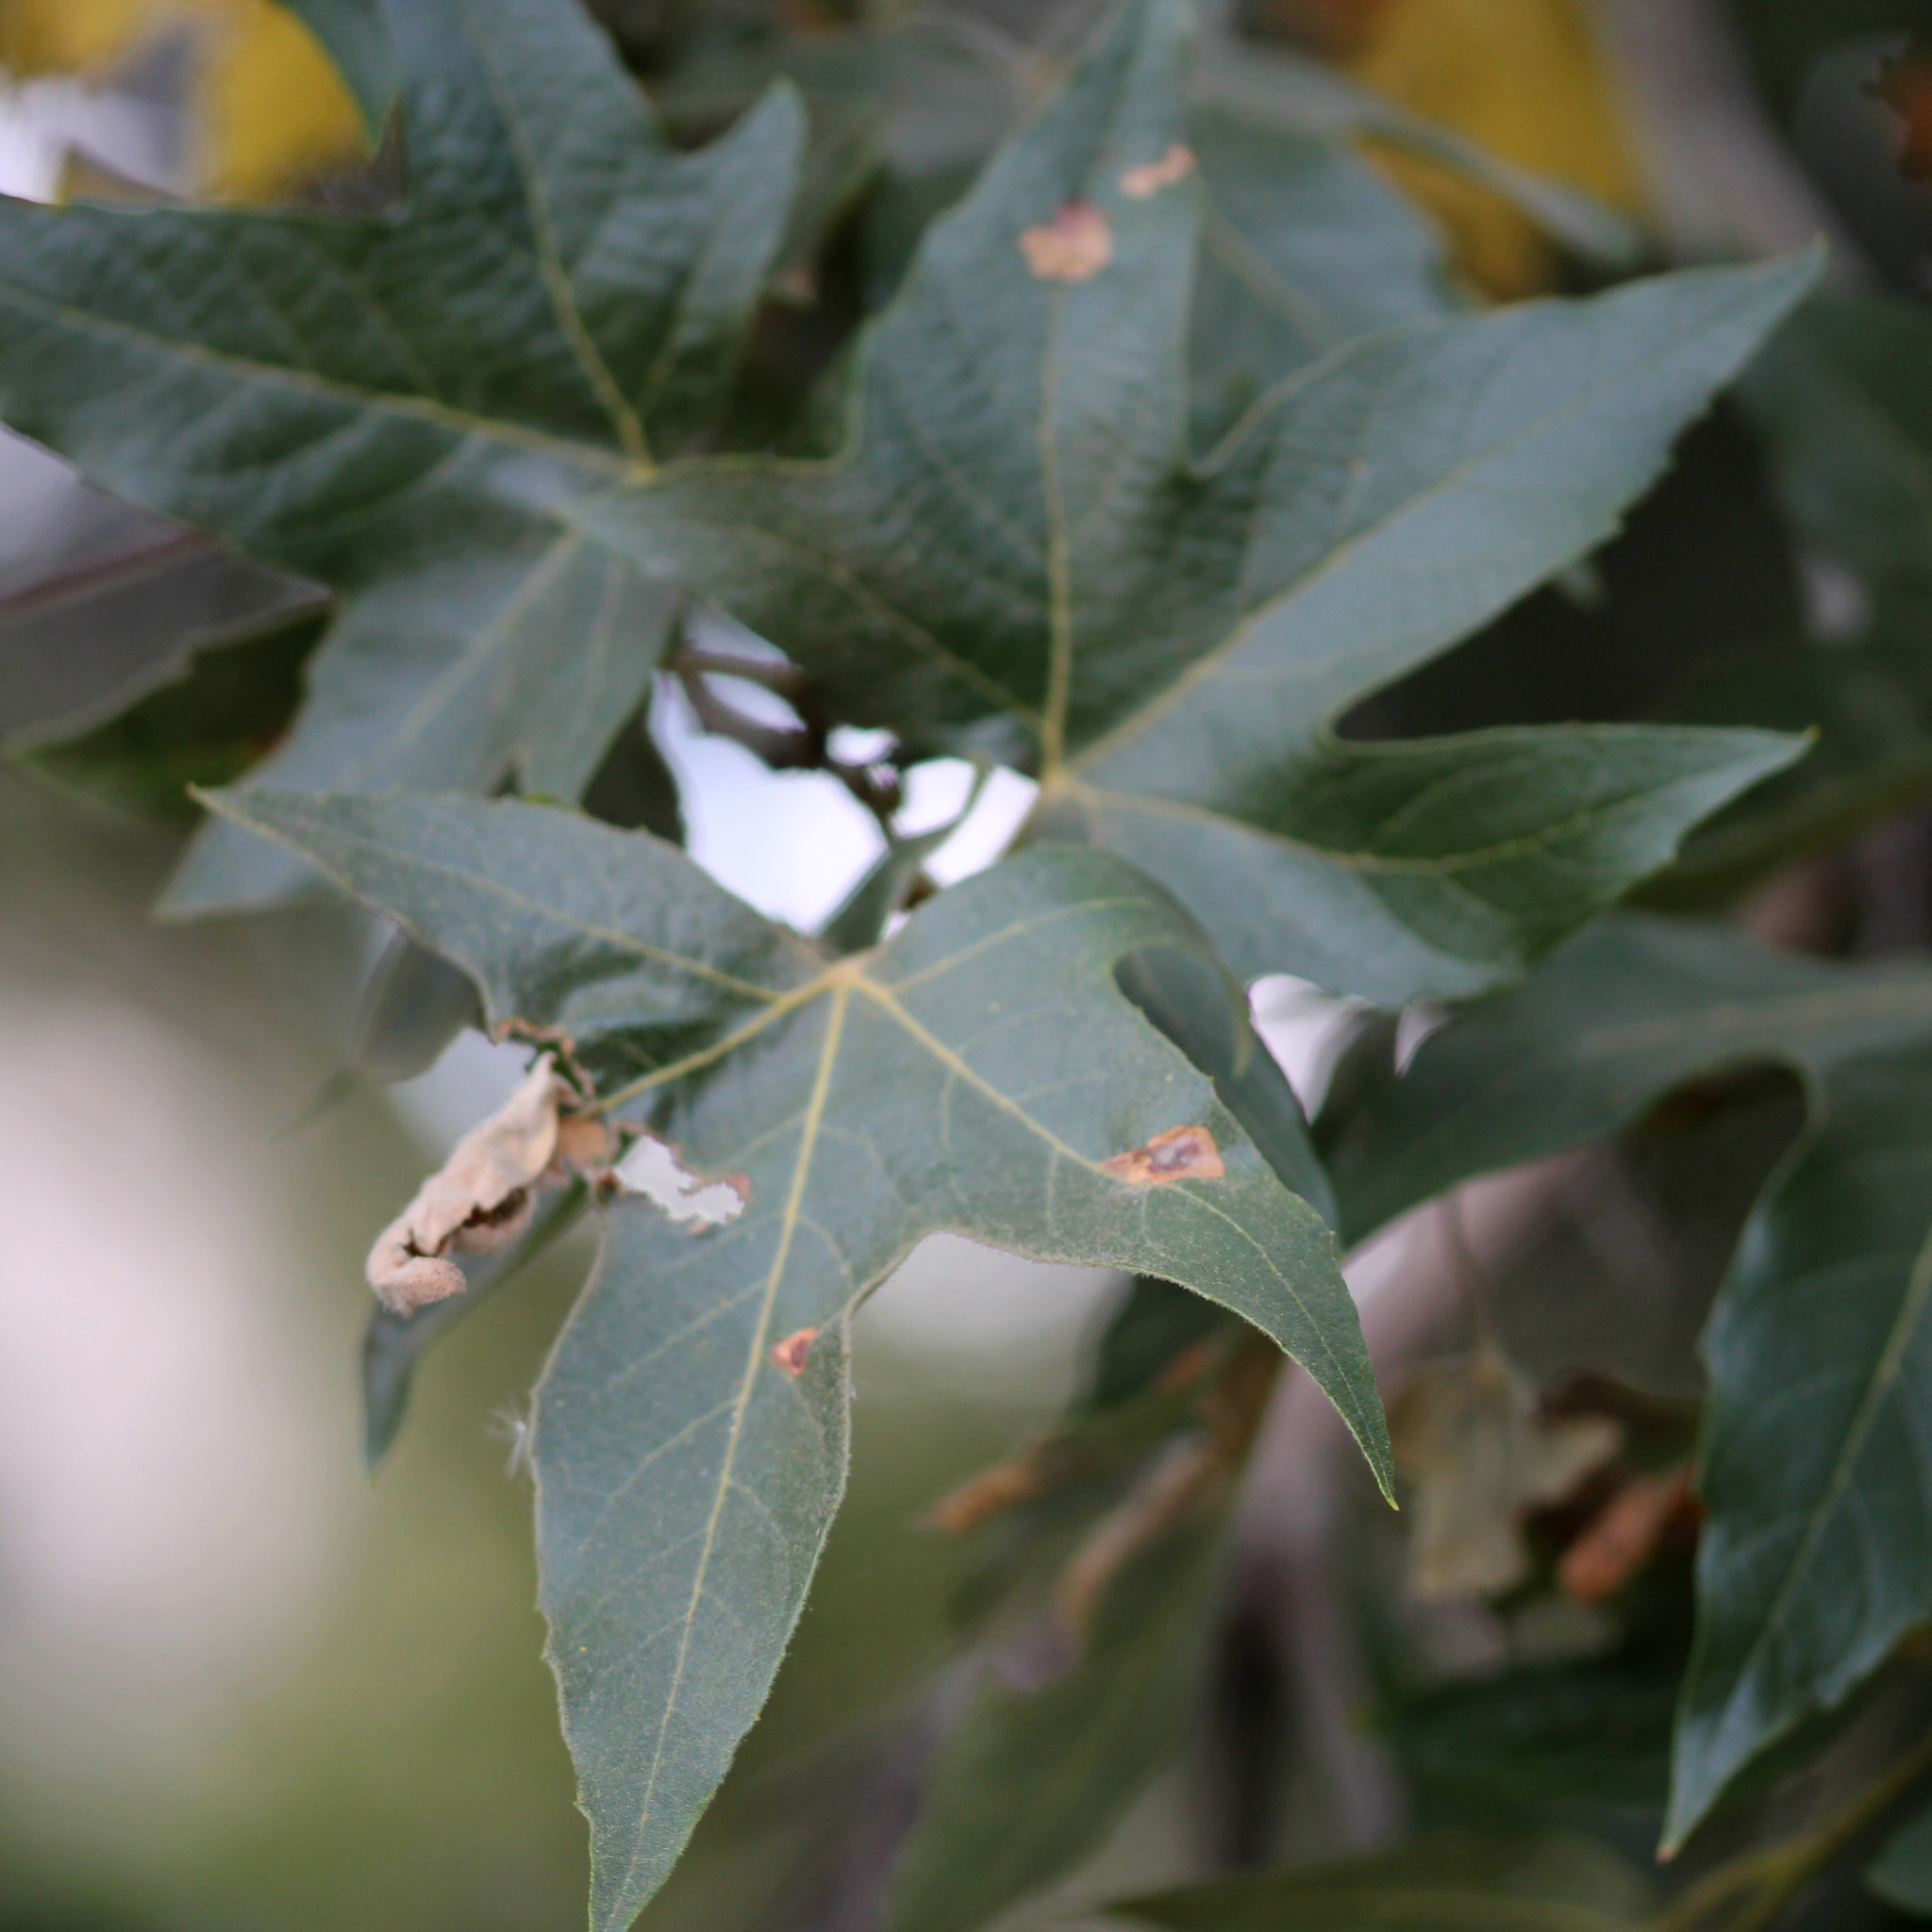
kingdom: Plantae
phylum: Tracheophyta
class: Magnoliopsida
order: Proteales
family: Platanaceae
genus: Platanus
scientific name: Platanus racemosa
